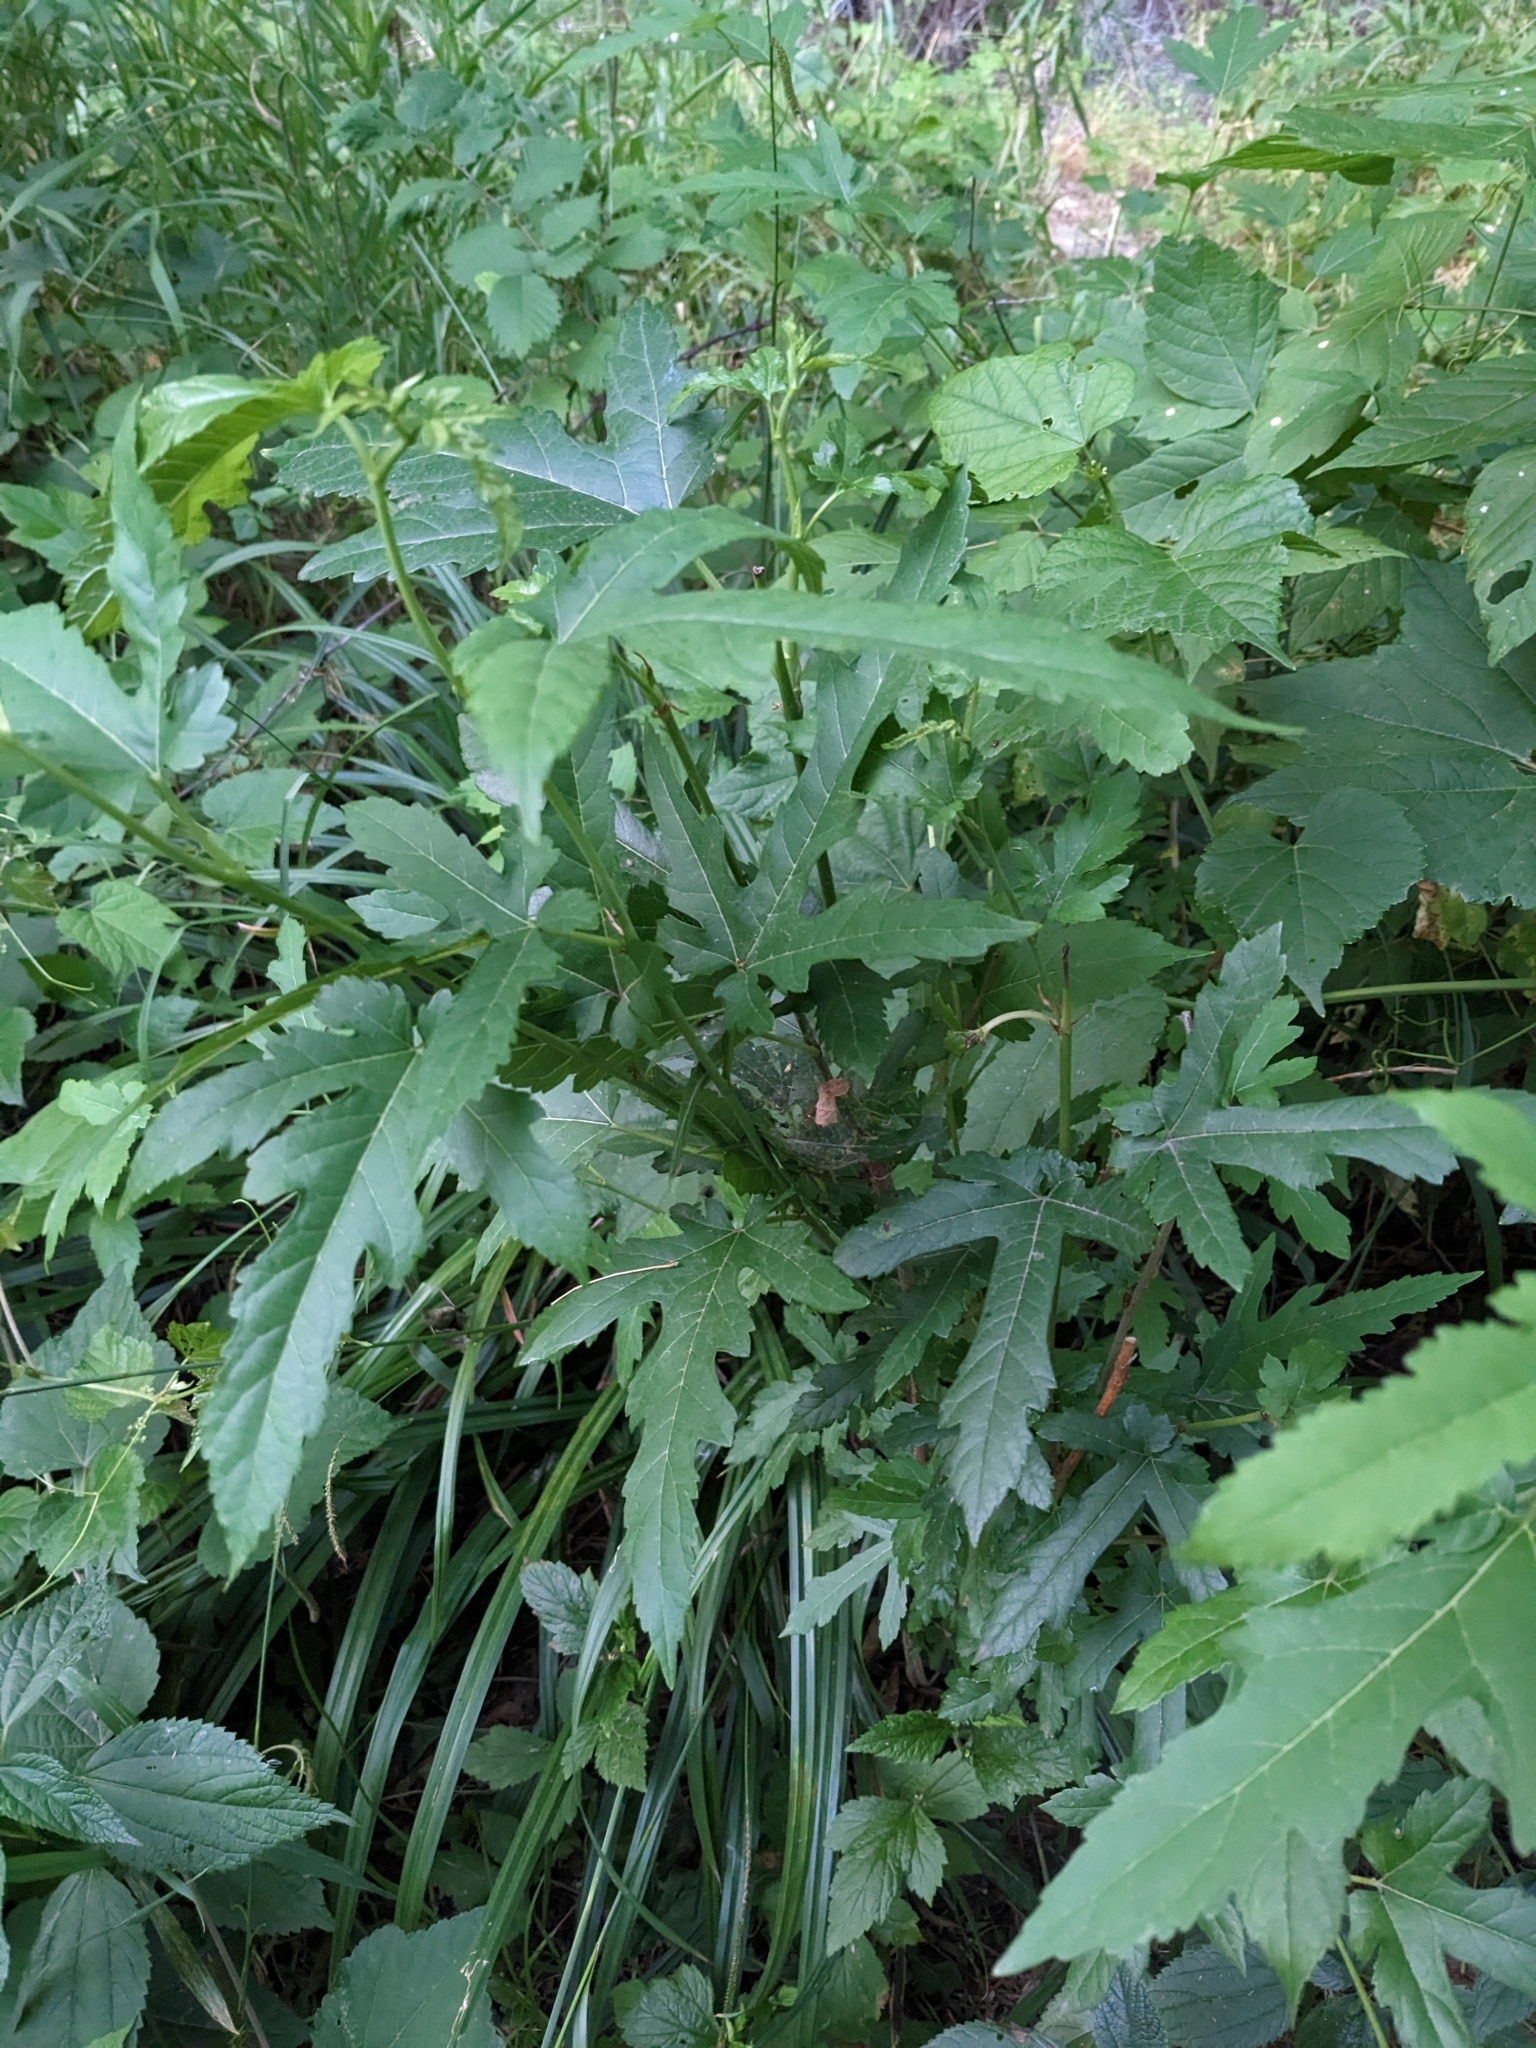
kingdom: Plantae
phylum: Tracheophyta
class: Magnoliopsida
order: Rosales
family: Moraceae
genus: Morus
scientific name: Morus indica
